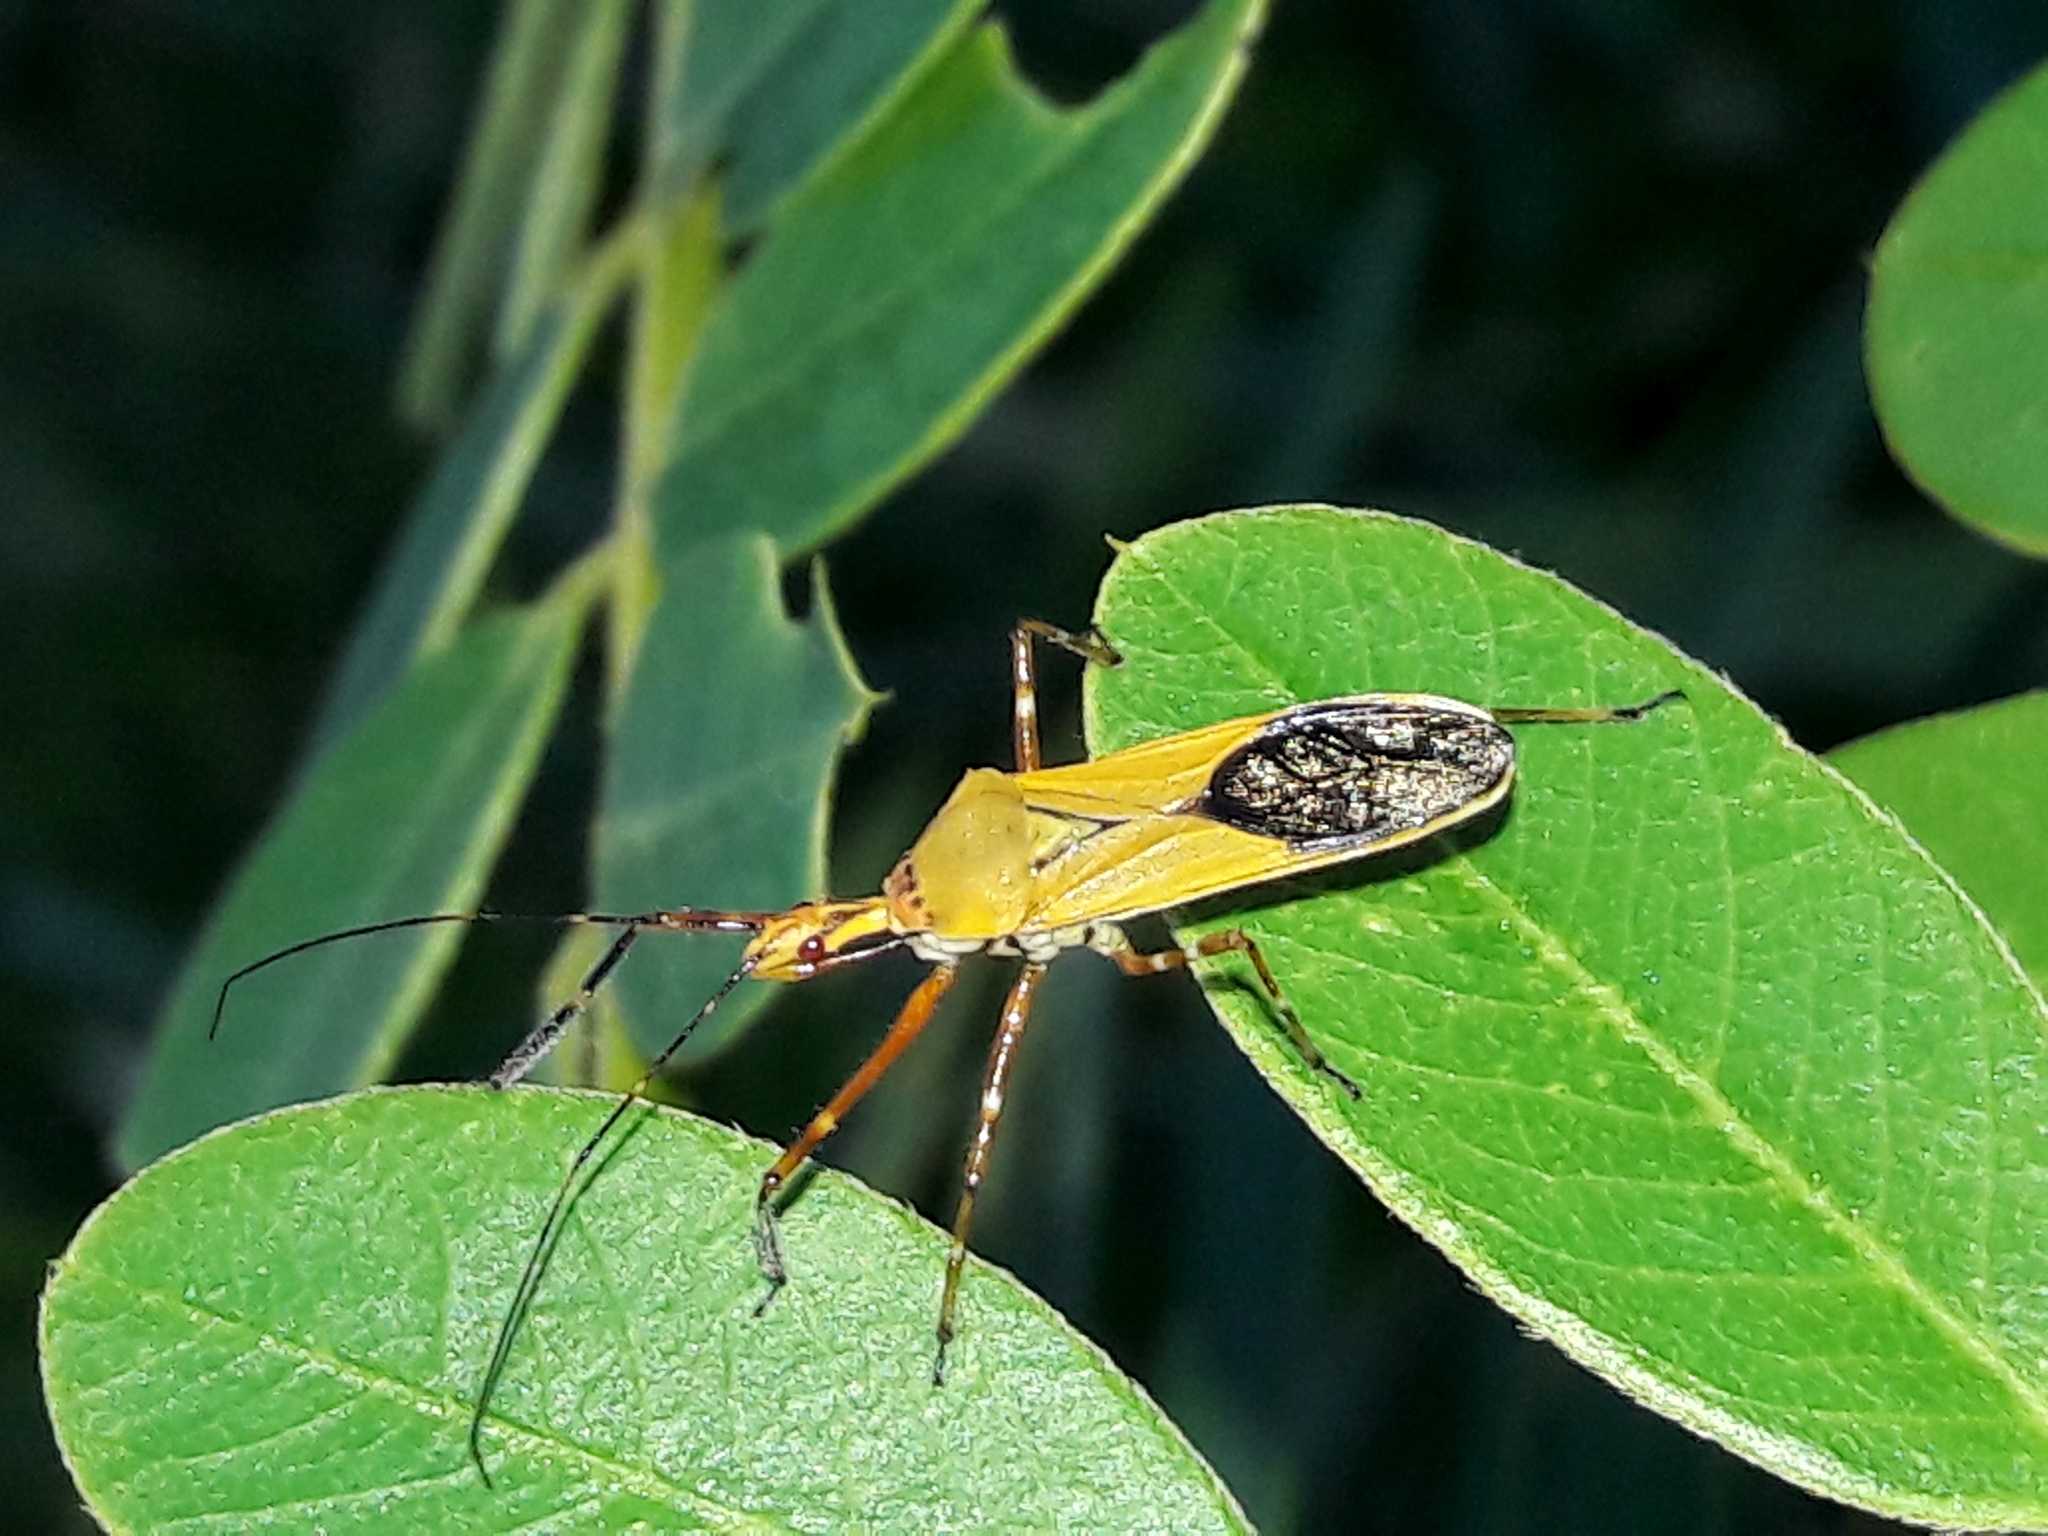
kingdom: Animalia
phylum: Arthropoda
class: Insecta
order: Hemiptera
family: Reduviidae
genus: Zelus
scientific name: Zelus laticornis
